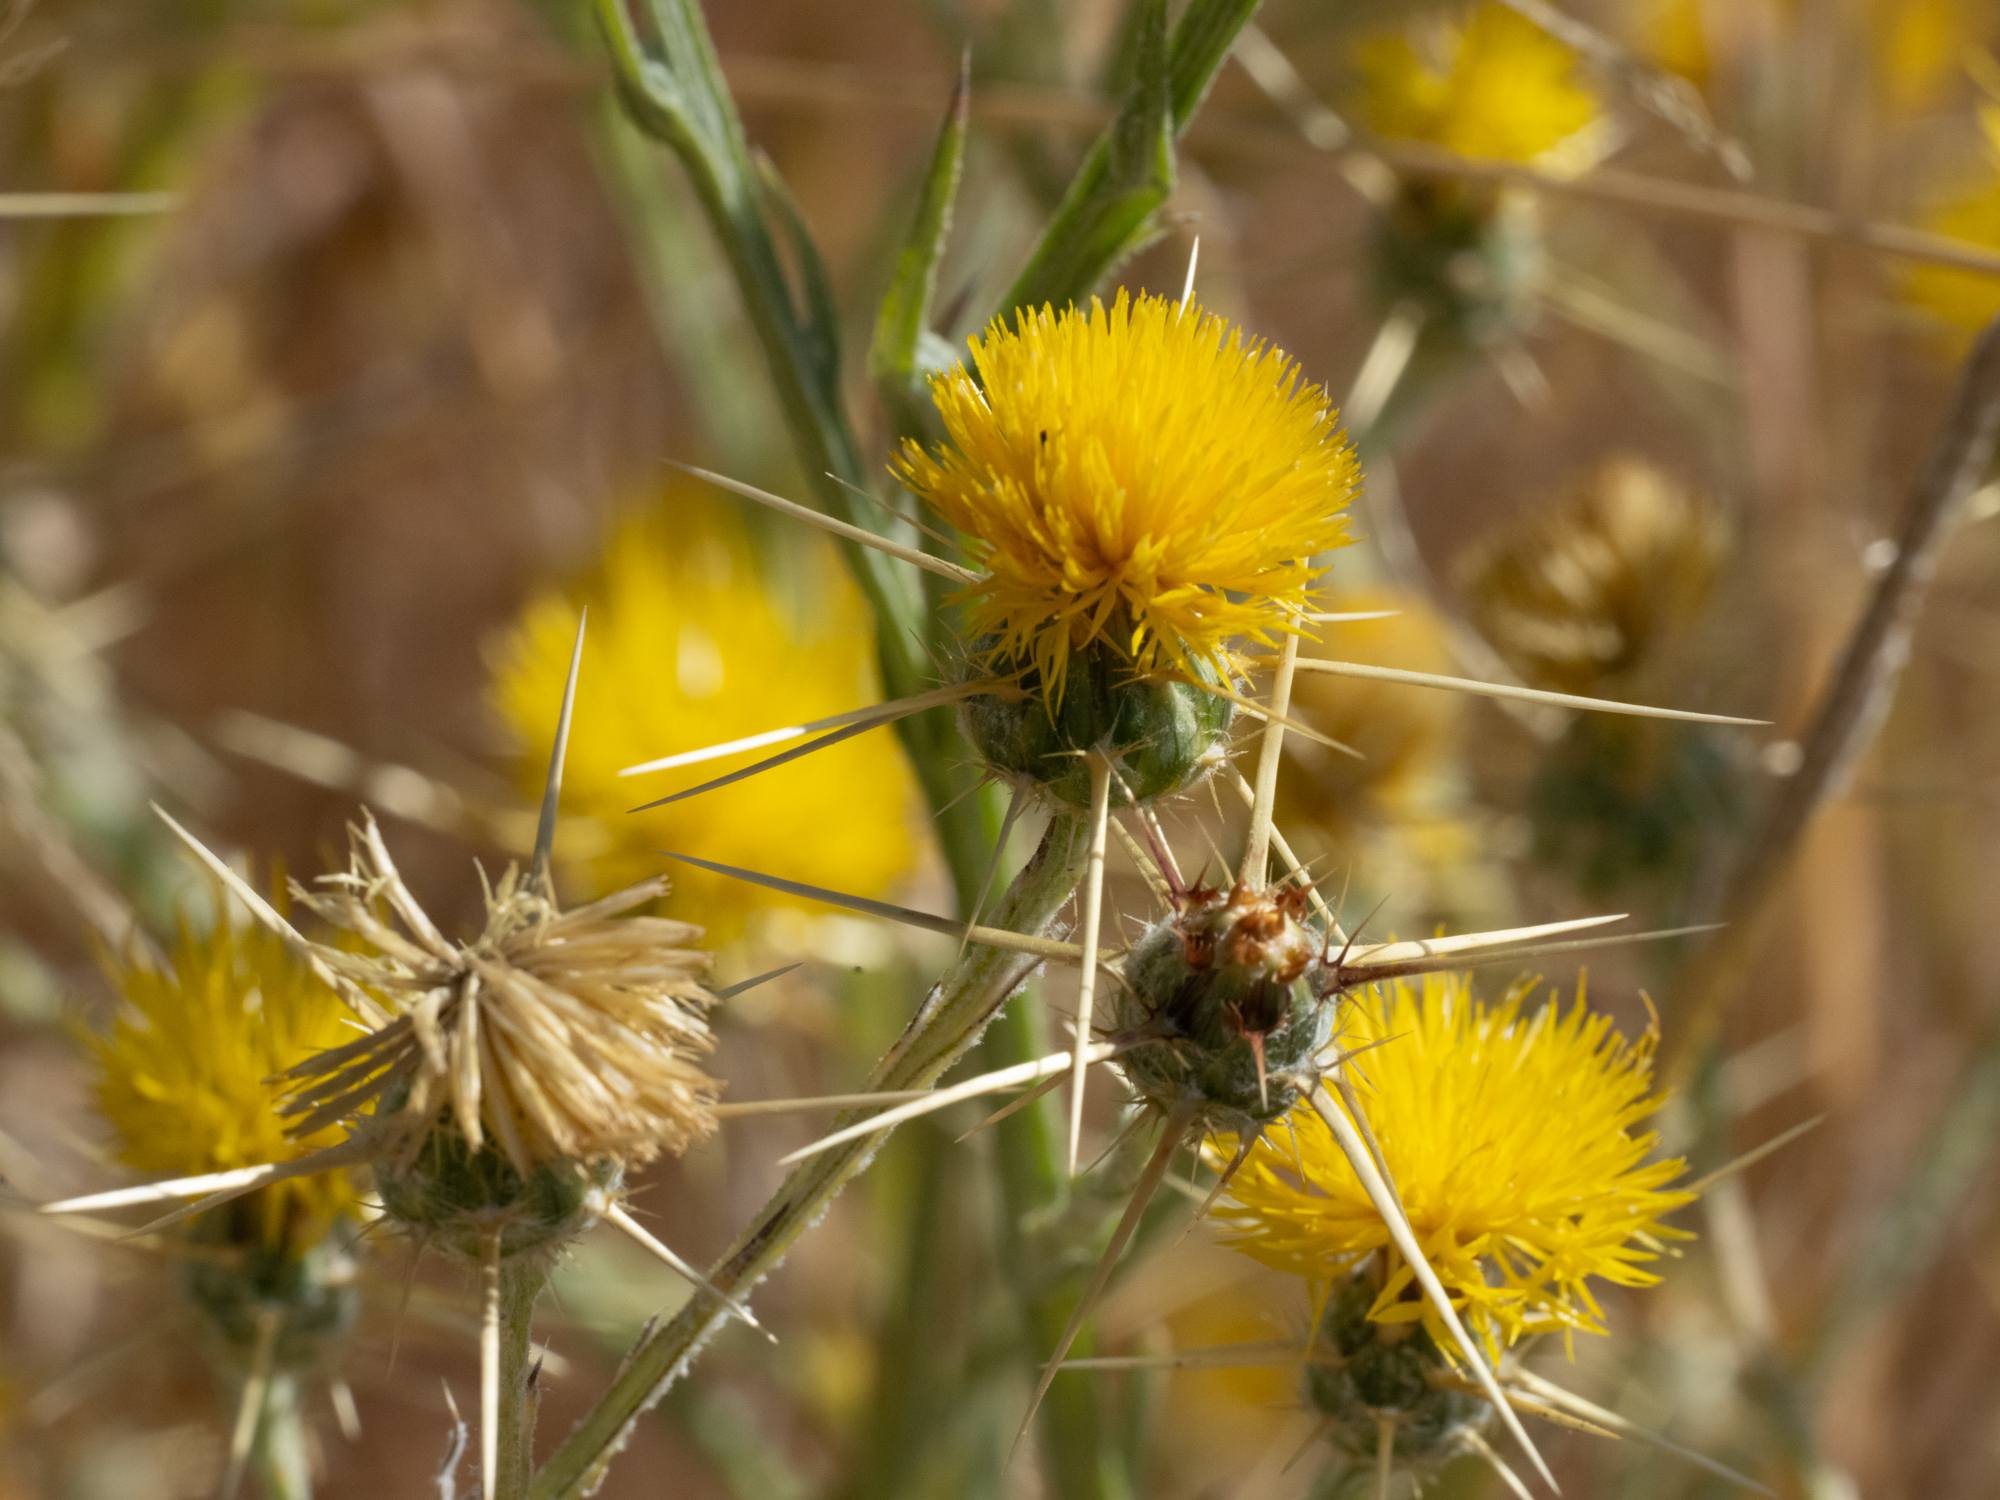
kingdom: Plantae
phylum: Tracheophyta
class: Magnoliopsida
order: Asterales
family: Asteraceae
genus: Centaurea
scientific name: Centaurea solstitialis
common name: Yellow star-thistle
